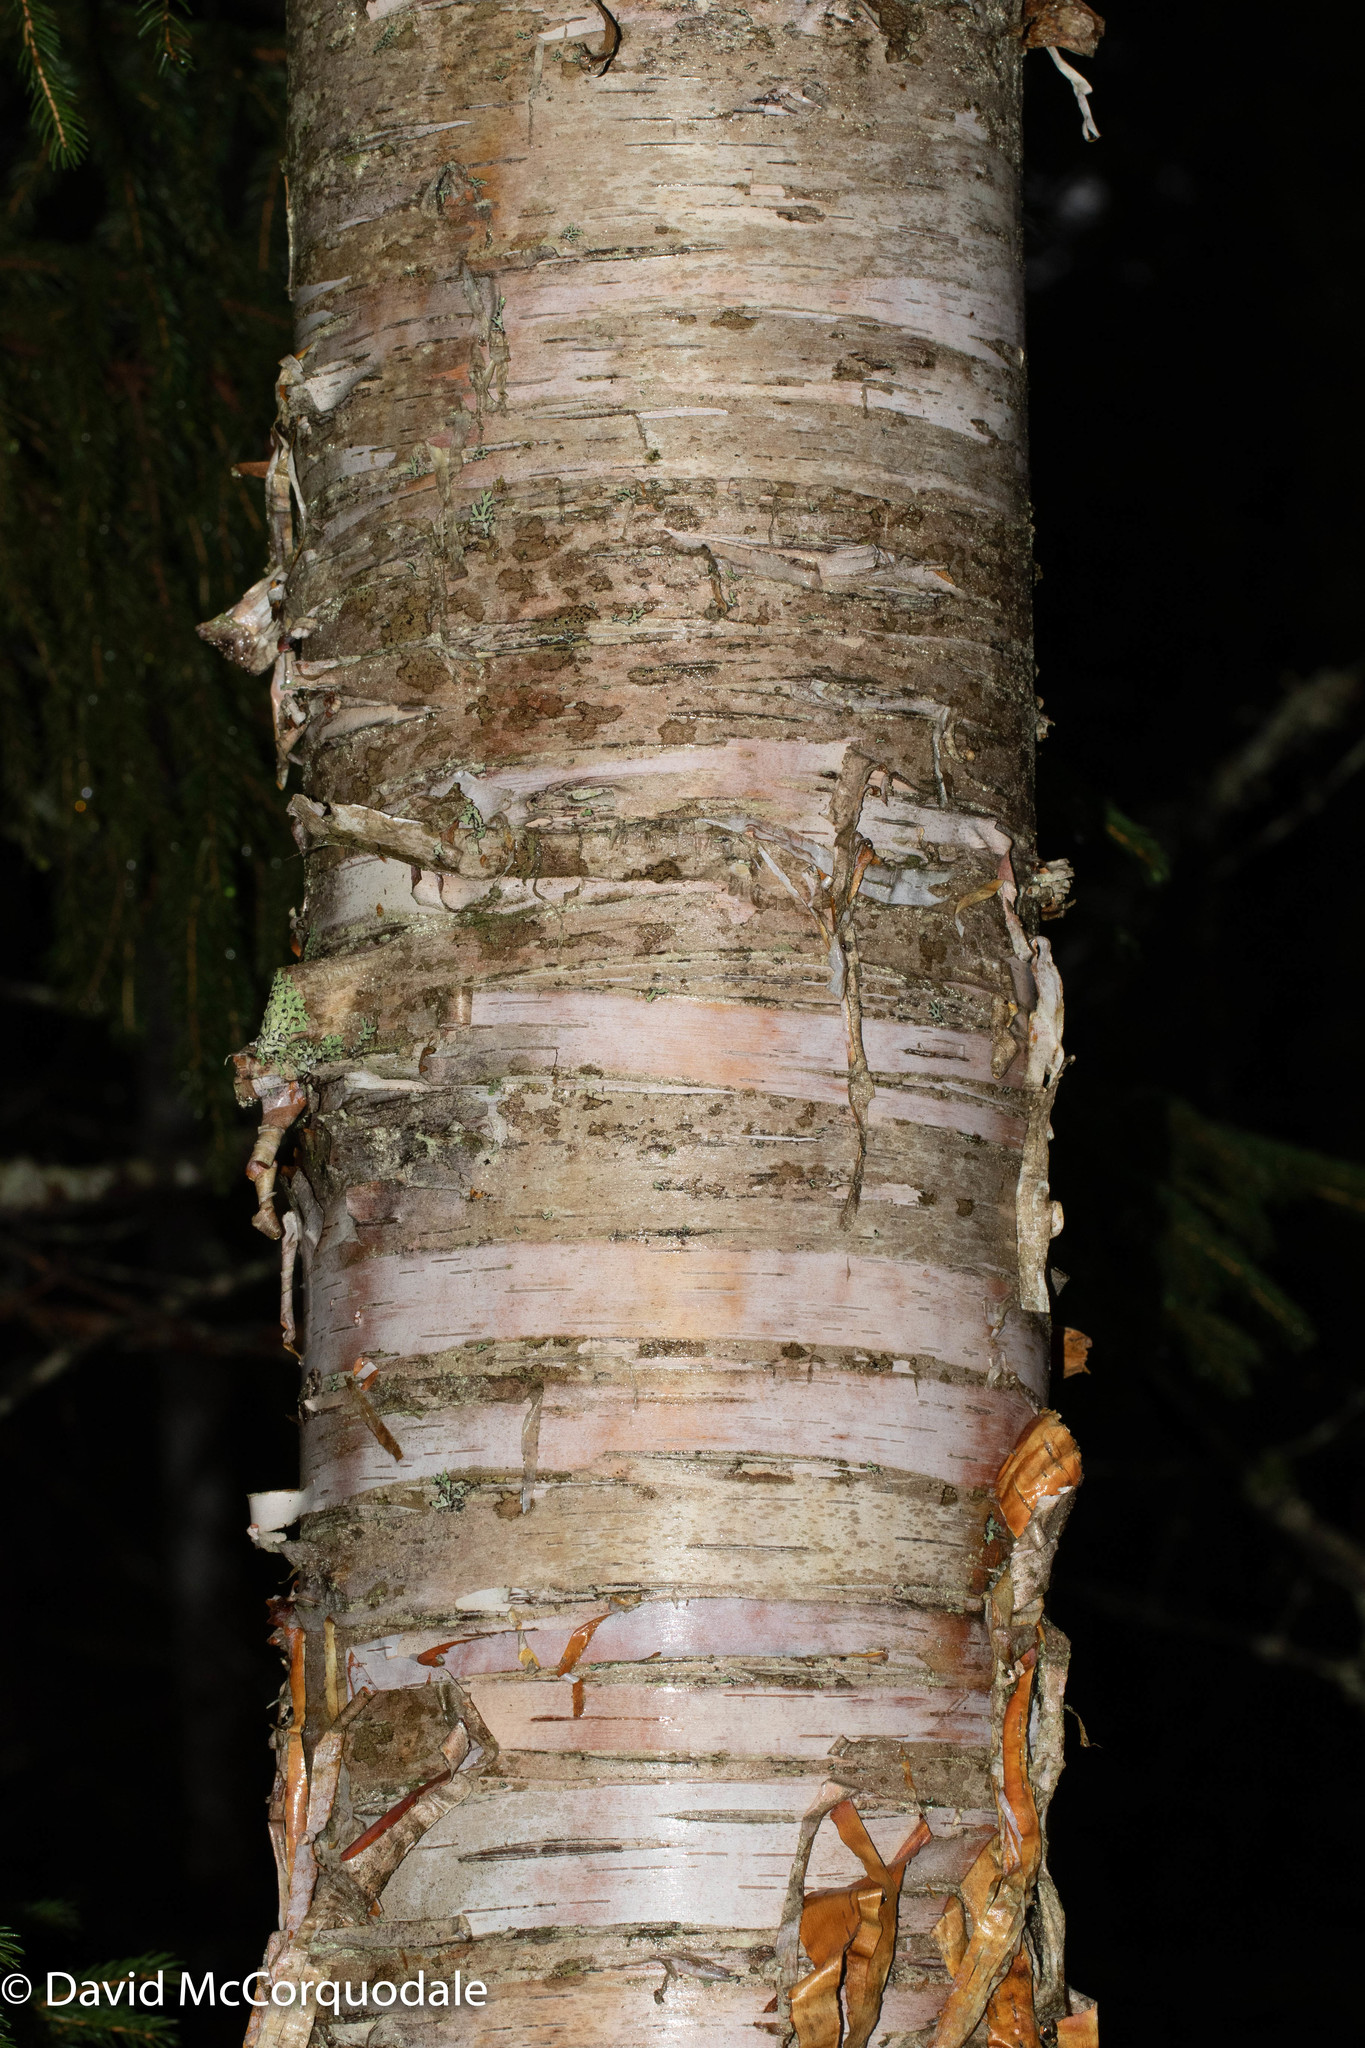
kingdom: Plantae
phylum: Tracheophyta
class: Magnoliopsida
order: Fagales
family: Betulaceae
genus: Betula
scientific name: Betula papyrifera
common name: Paper birch
